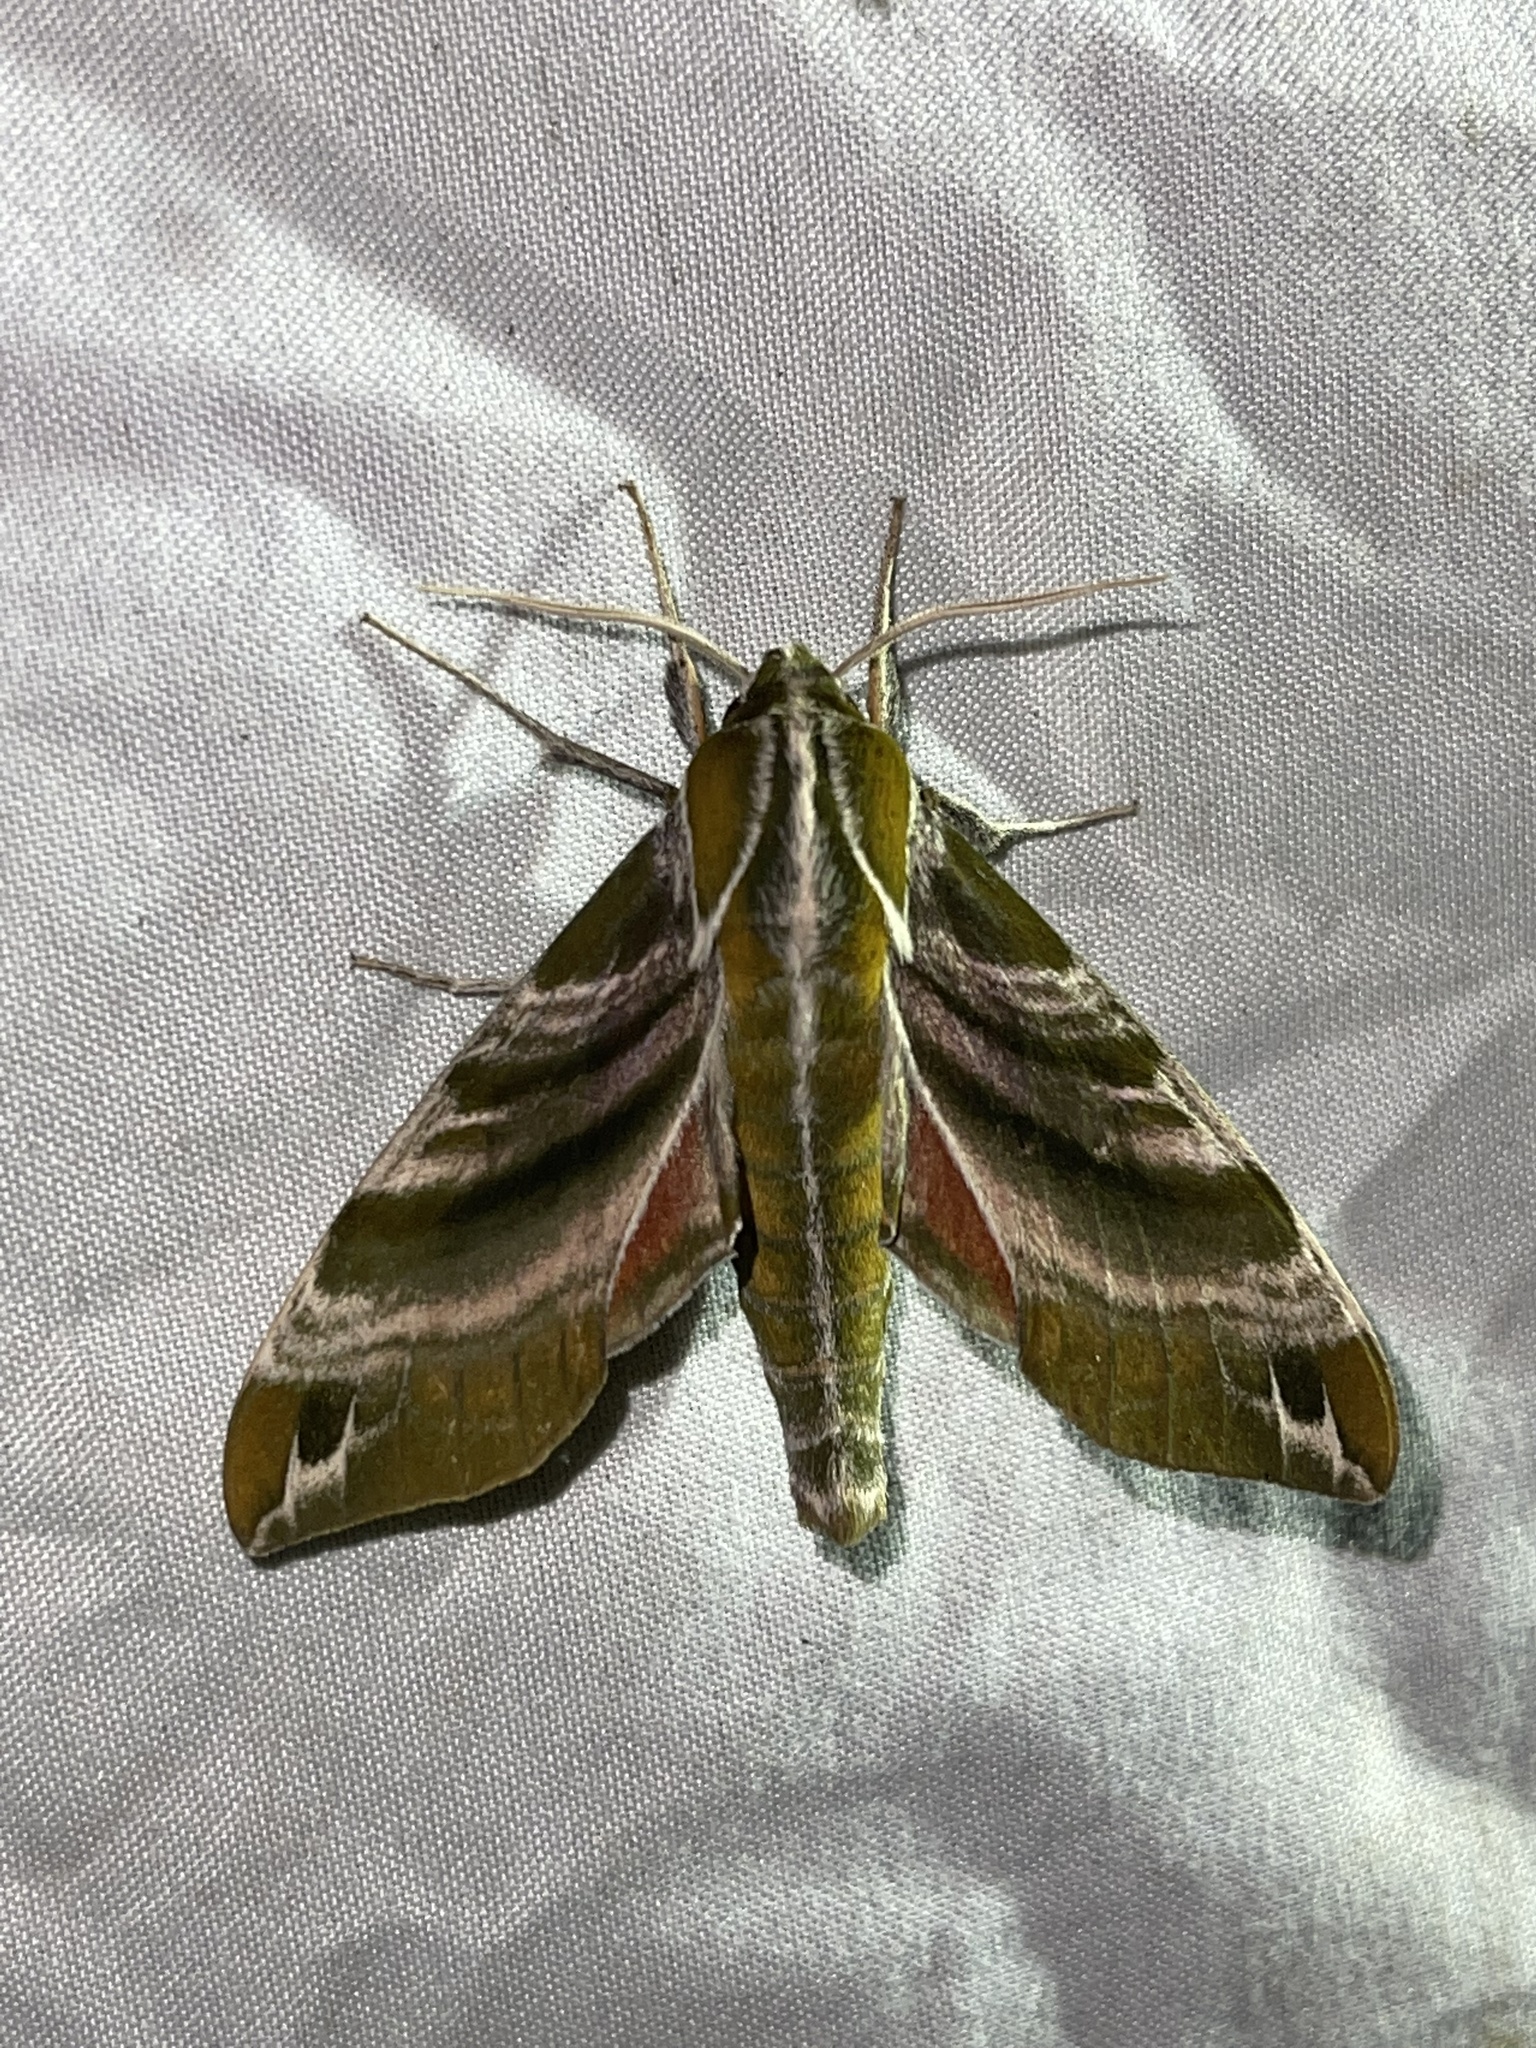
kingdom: Animalia
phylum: Arthropoda
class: Insecta
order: Lepidoptera
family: Sphingidae
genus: Darapsa
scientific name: Darapsa versicolor
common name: Hydrangea sphinx
